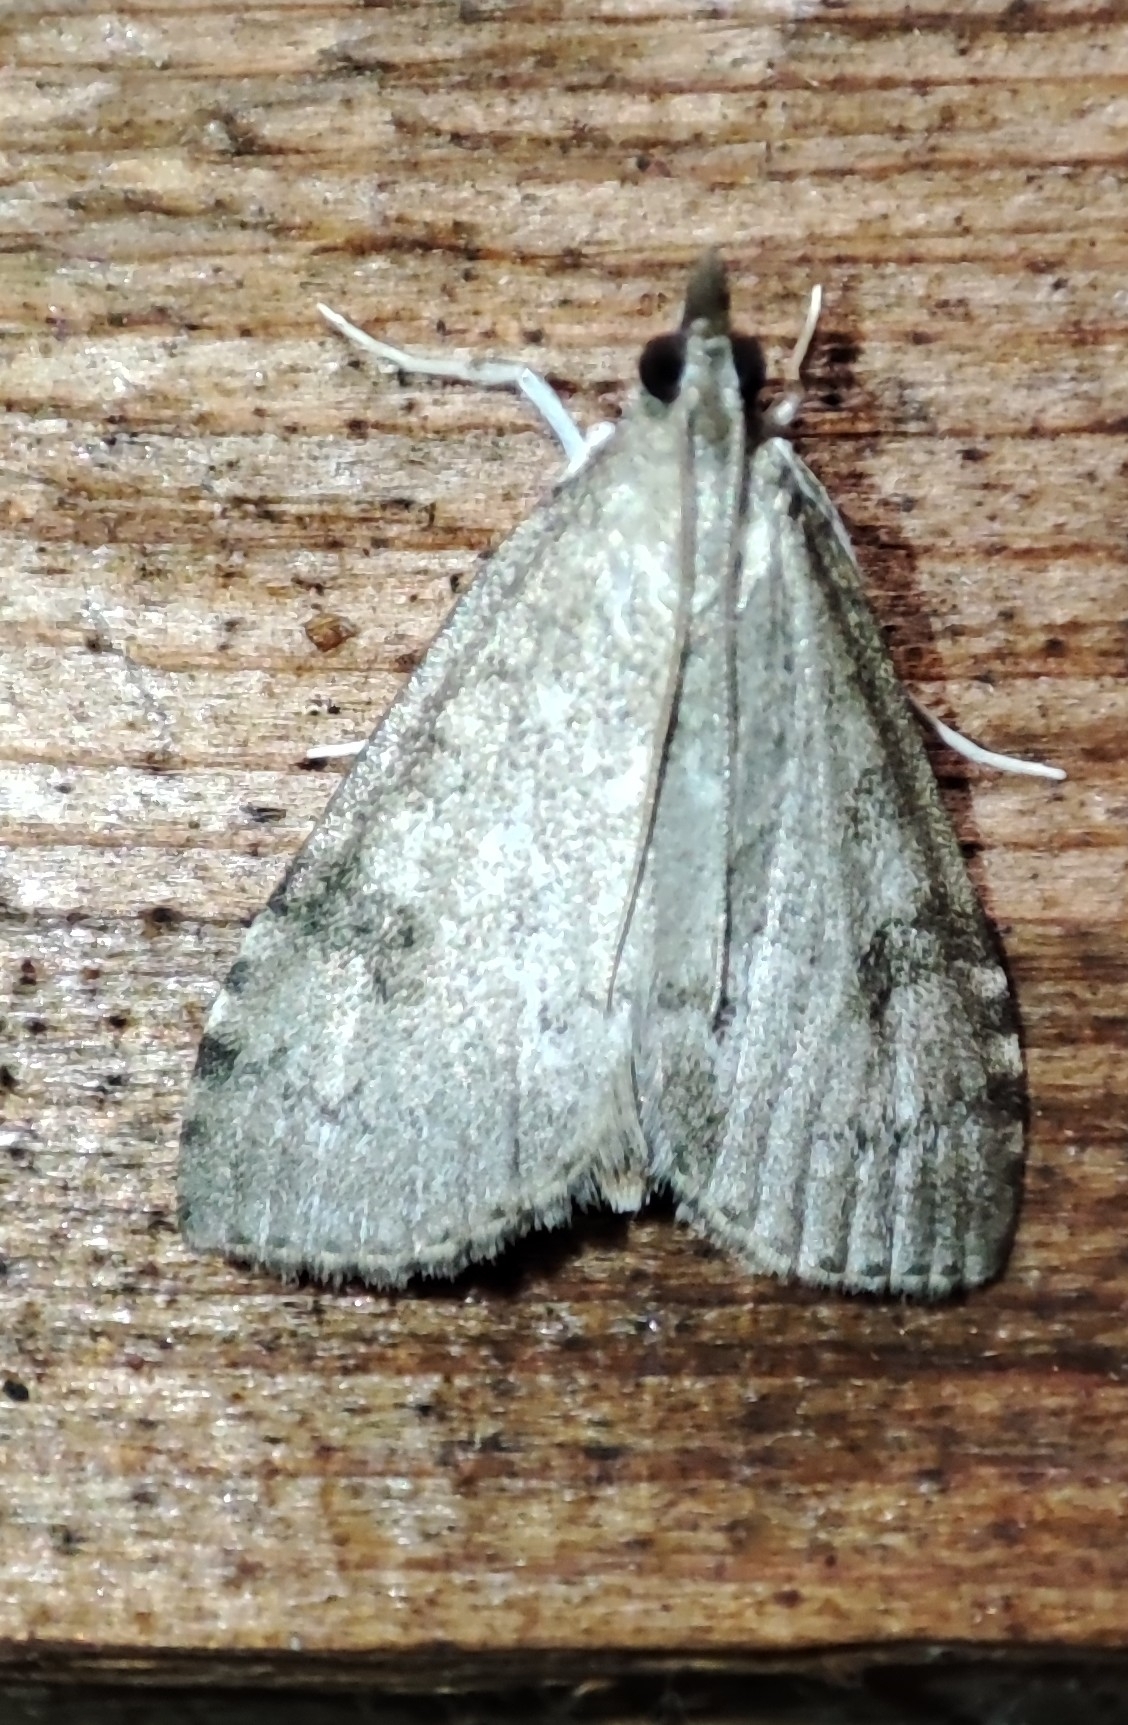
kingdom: Animalia
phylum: Arthropoda
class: Insecta
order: Lepidoptera
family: Crambidae
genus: Udea
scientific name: Udea prunalis
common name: Dusky pearl
